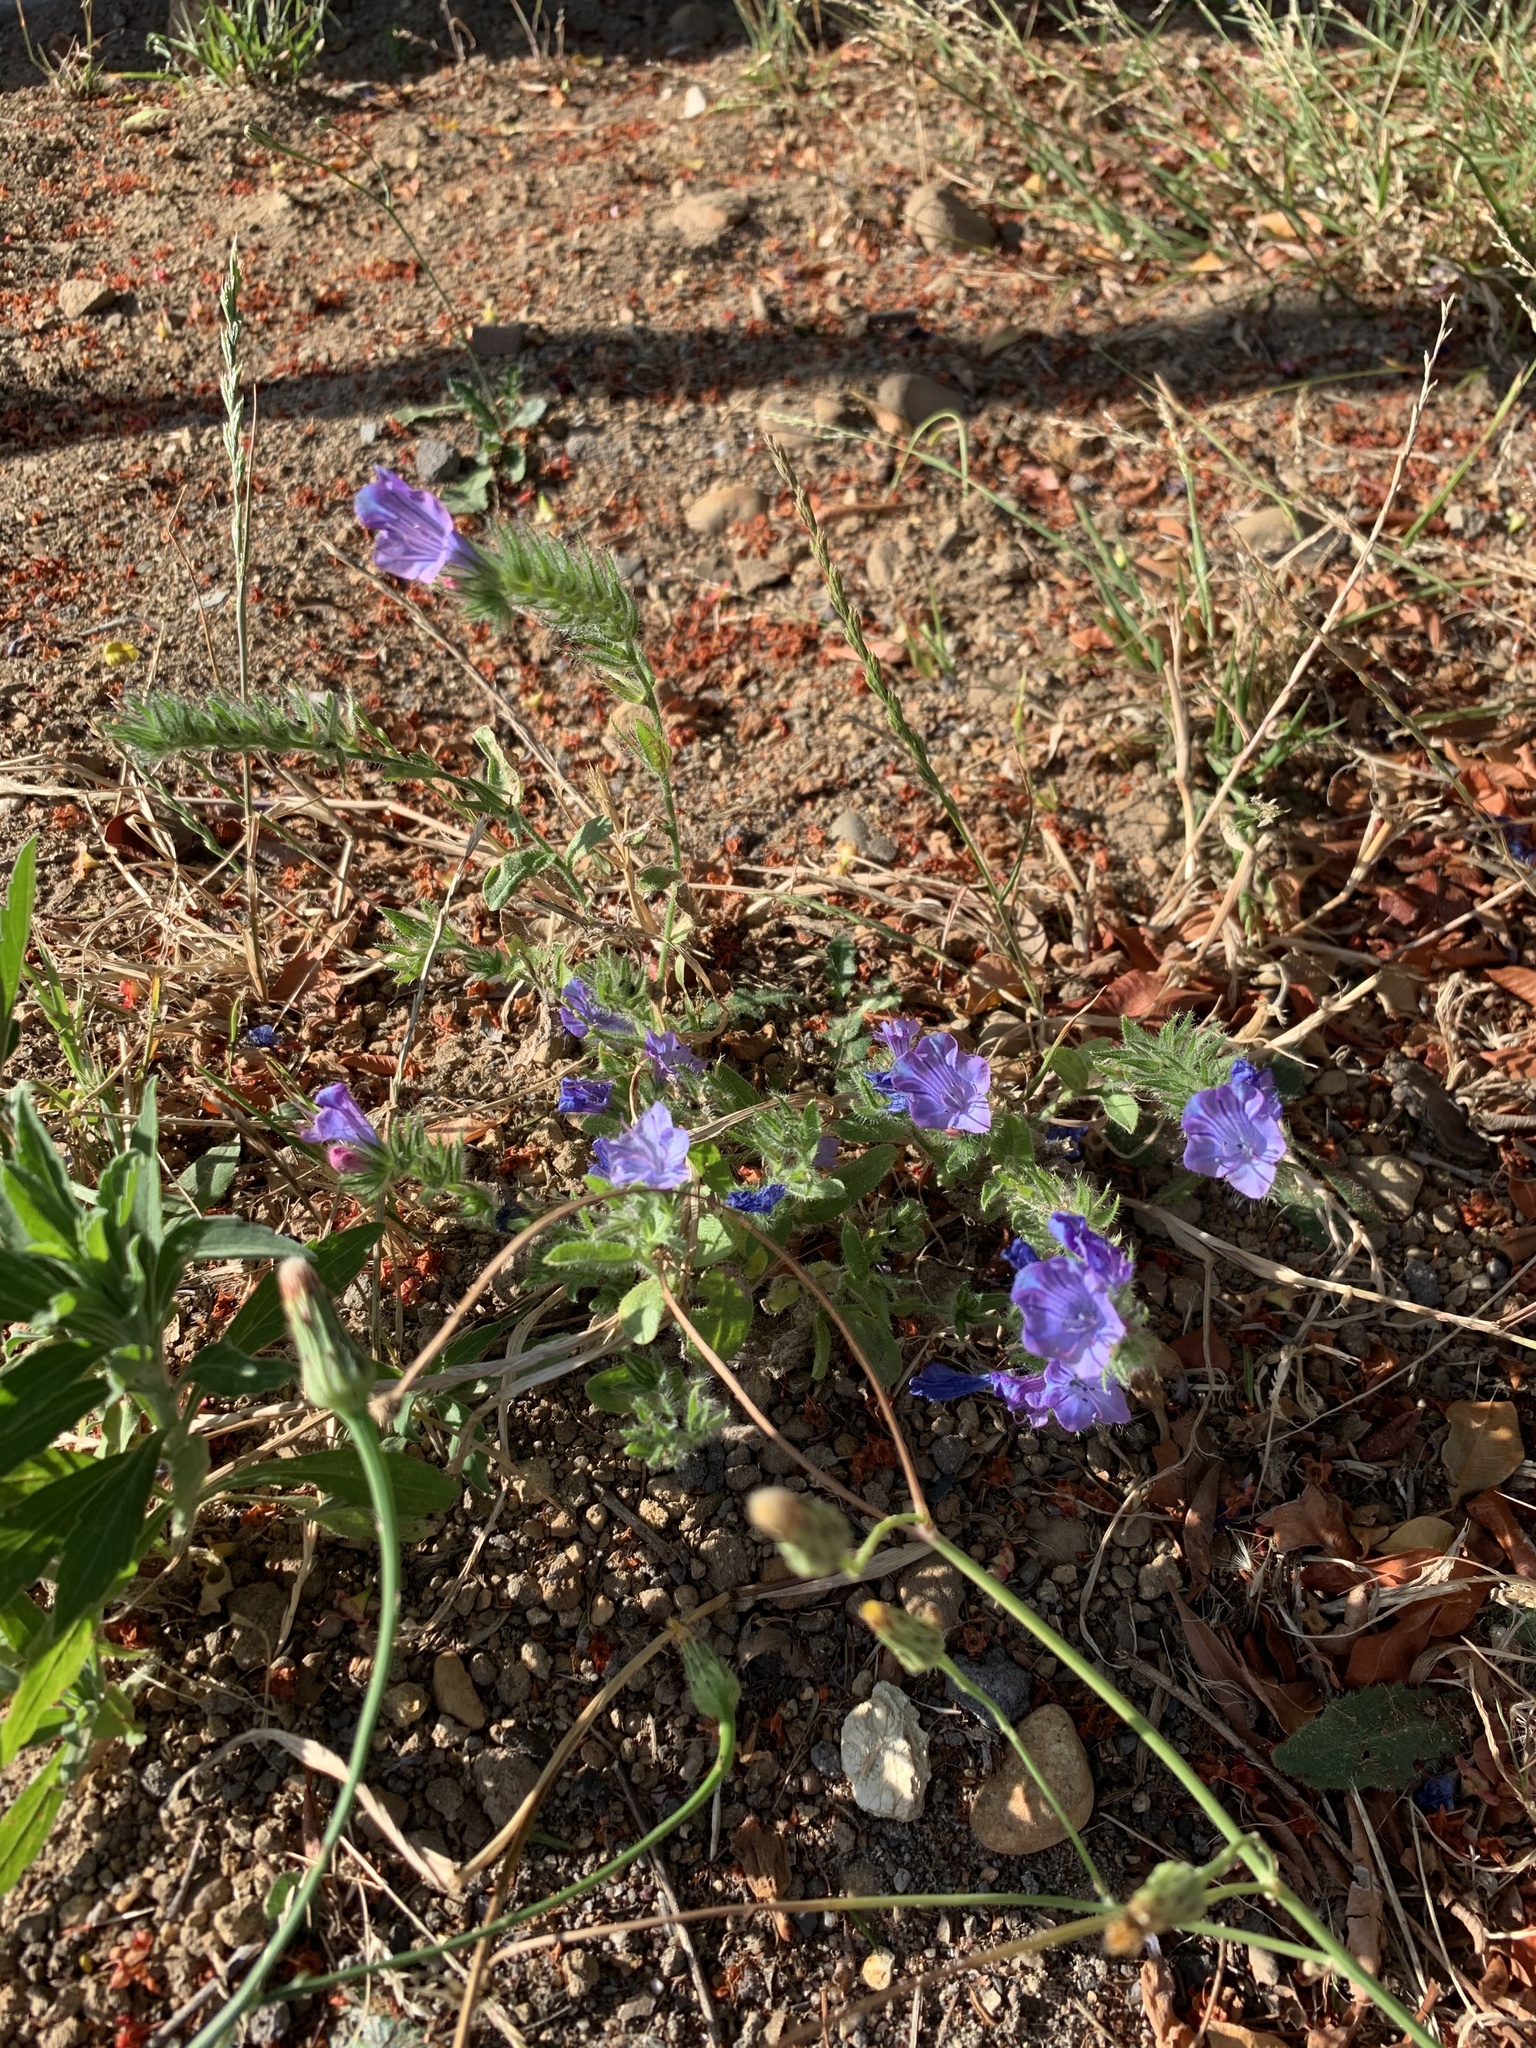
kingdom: Plantae
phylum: Tracheophyta
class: Magnoliopsida
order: Boraginales
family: Boraginaceae
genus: Echium
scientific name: Echium plantagineum
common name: Purple viper's-bugloss
